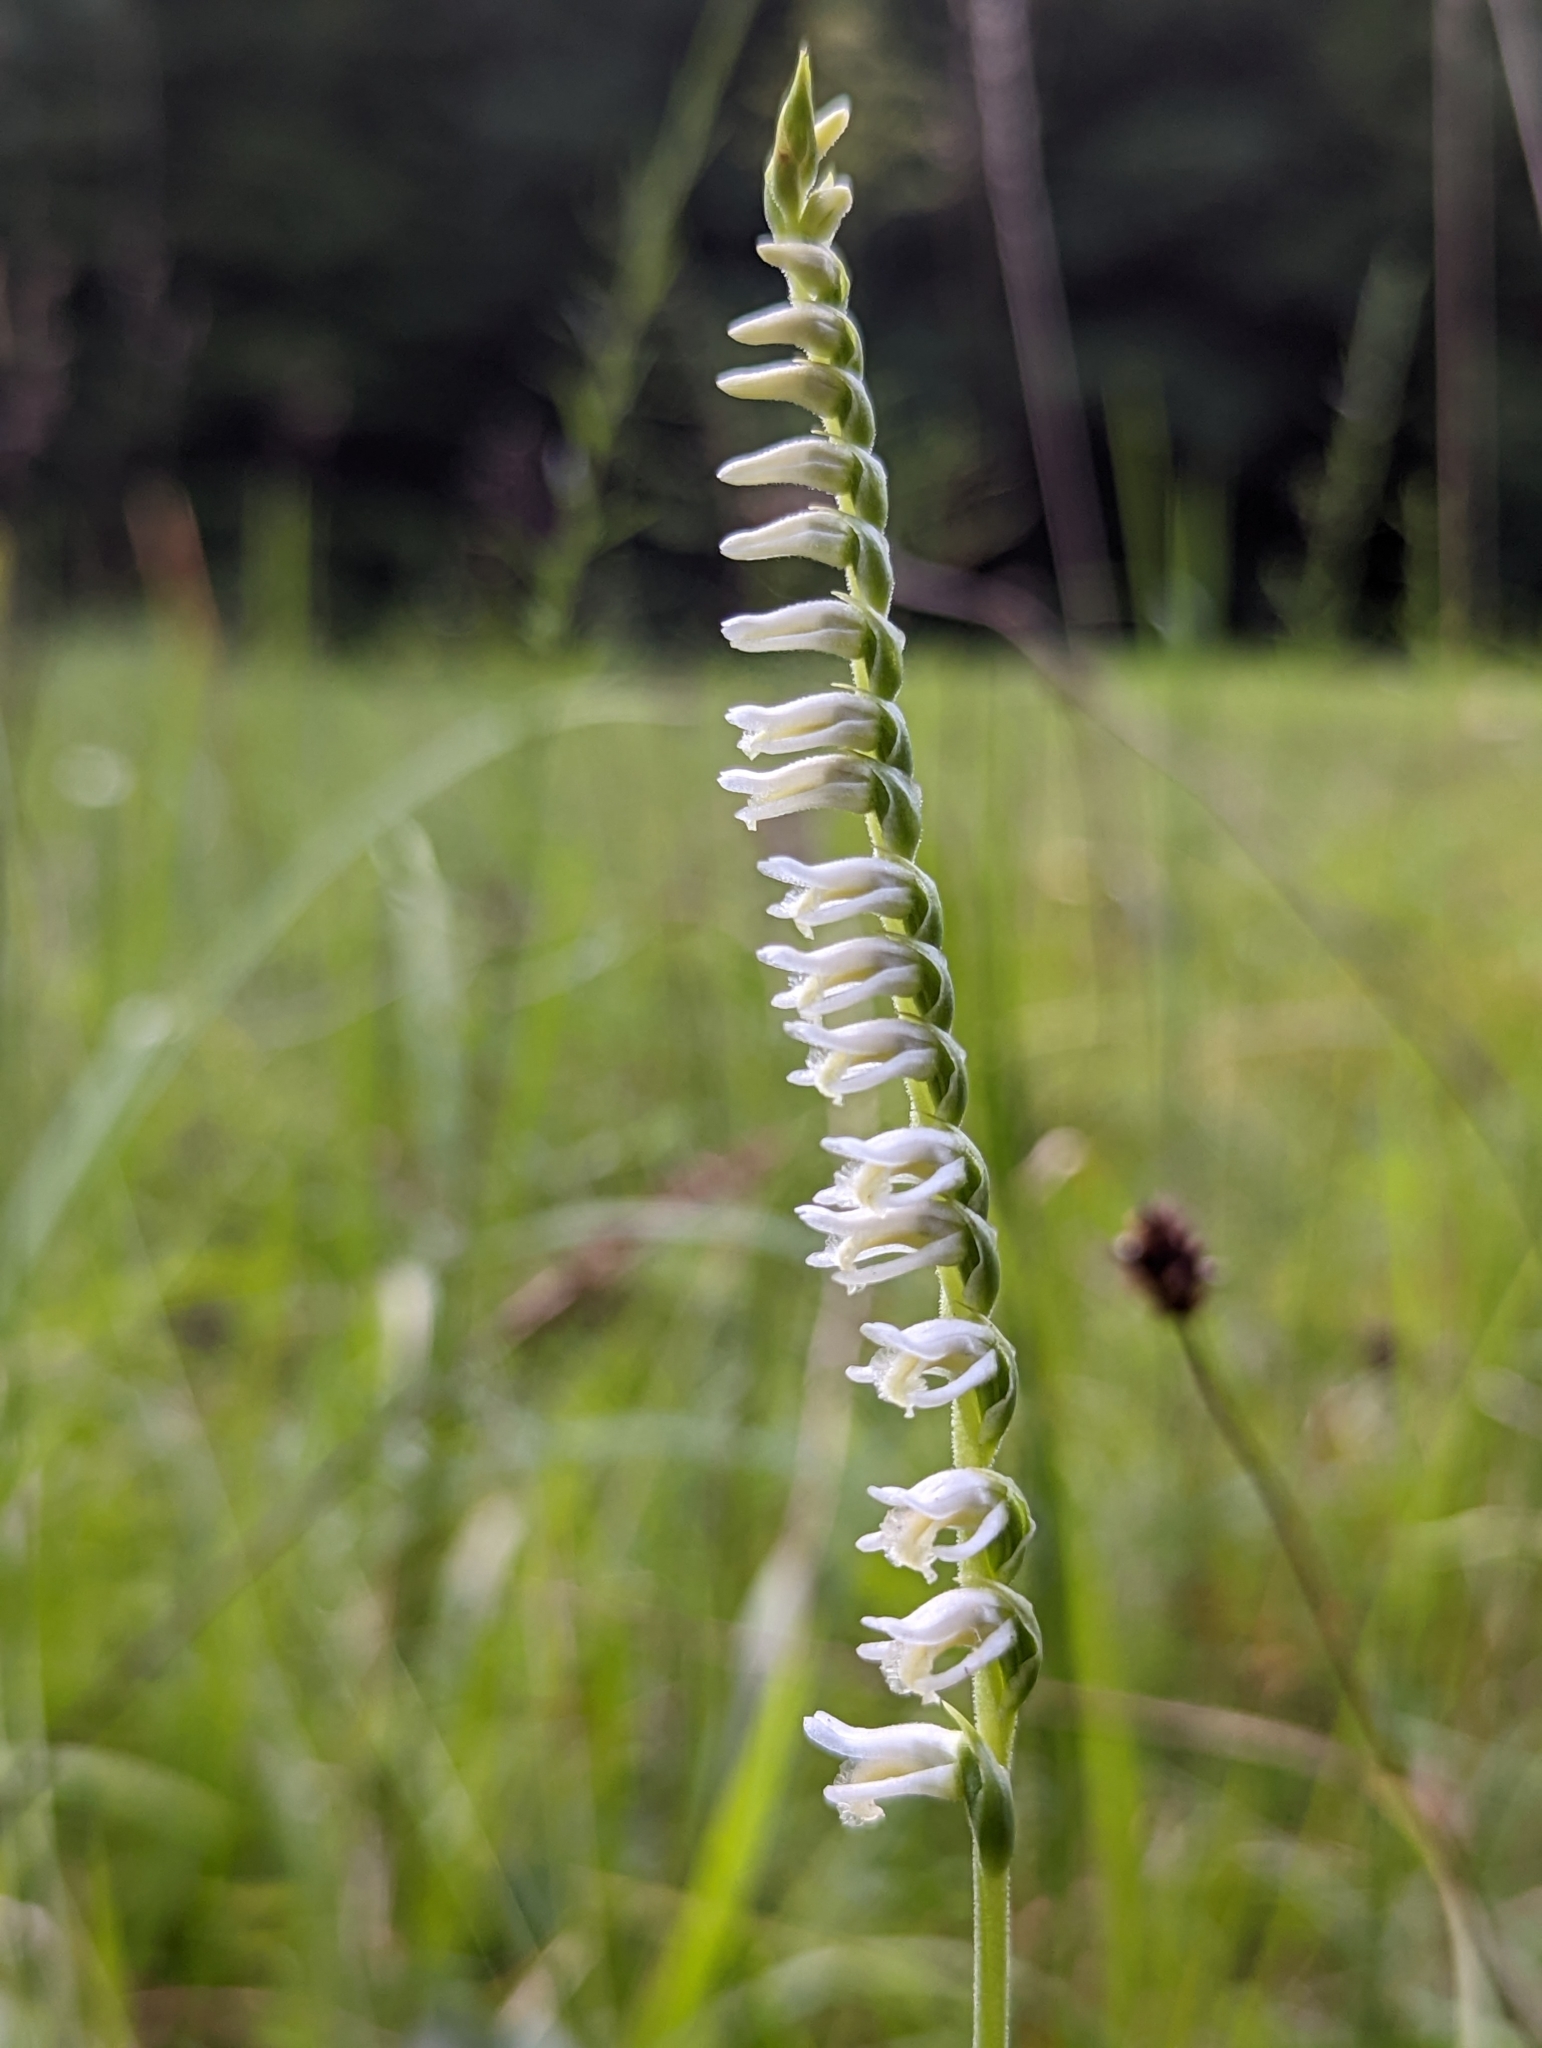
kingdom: Plantae
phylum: Tracheophyta
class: Liliopsida
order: Asparagales
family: Orchidaceae
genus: Spiranthes
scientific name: Spiranthes vernalis
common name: Spring ladies'-tresses
